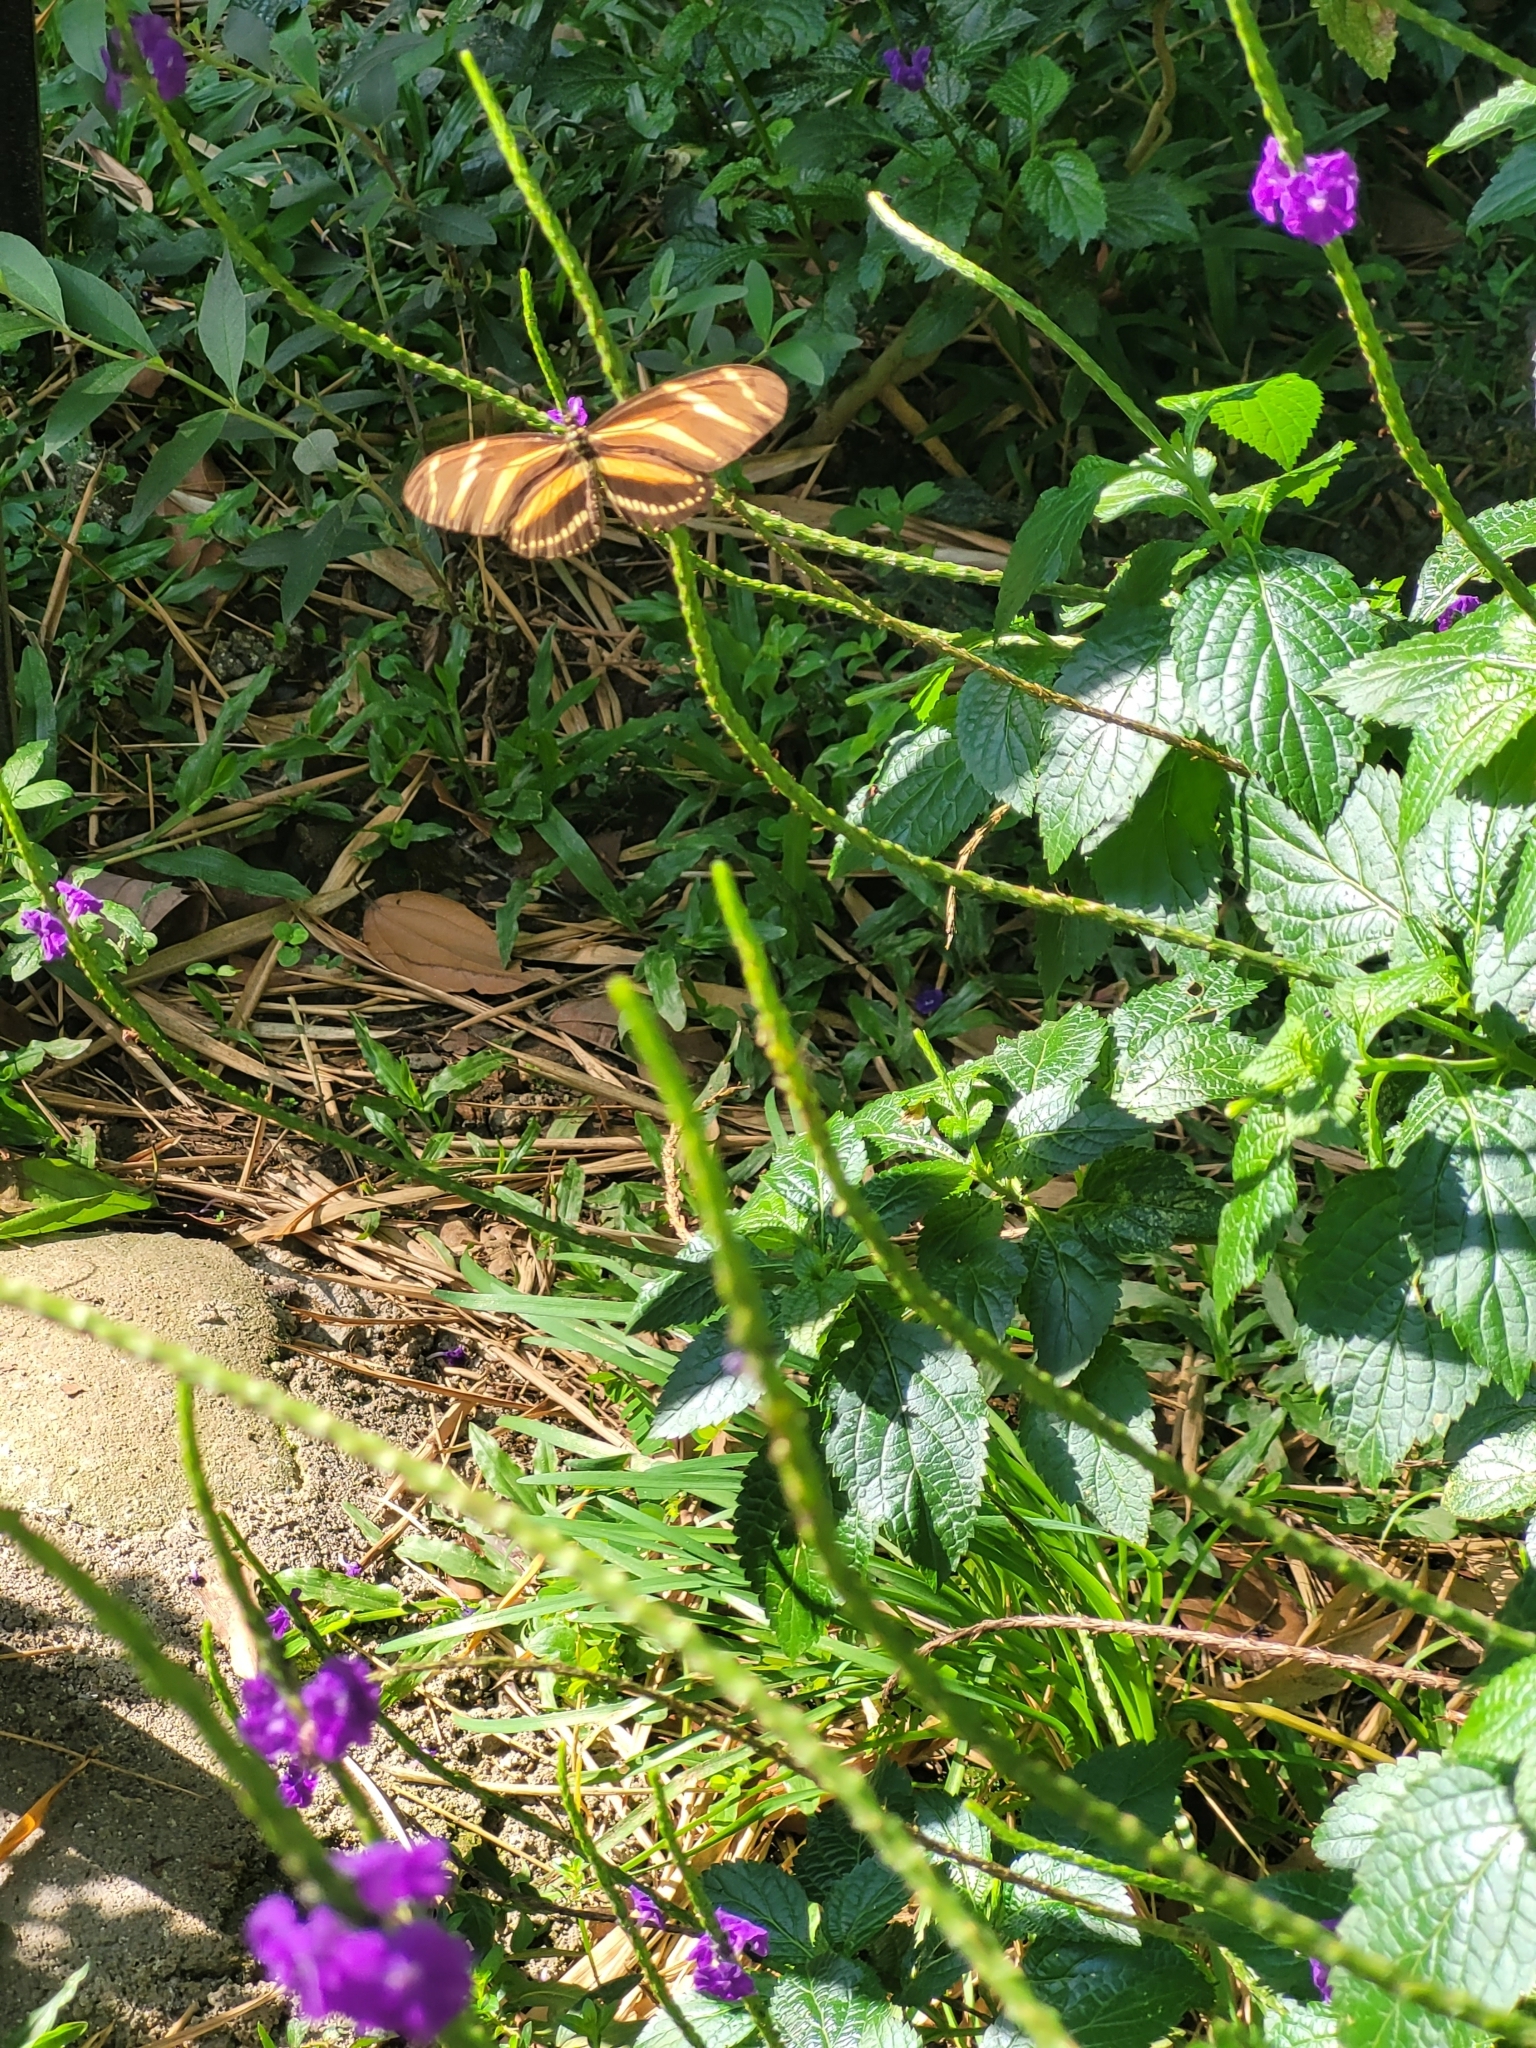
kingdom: Animalia
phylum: Arthropoda
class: Insecta
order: Lepidoptera
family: Nymphalidae
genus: Heliconius
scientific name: Heliconius charithonia
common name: Zebra long wing
